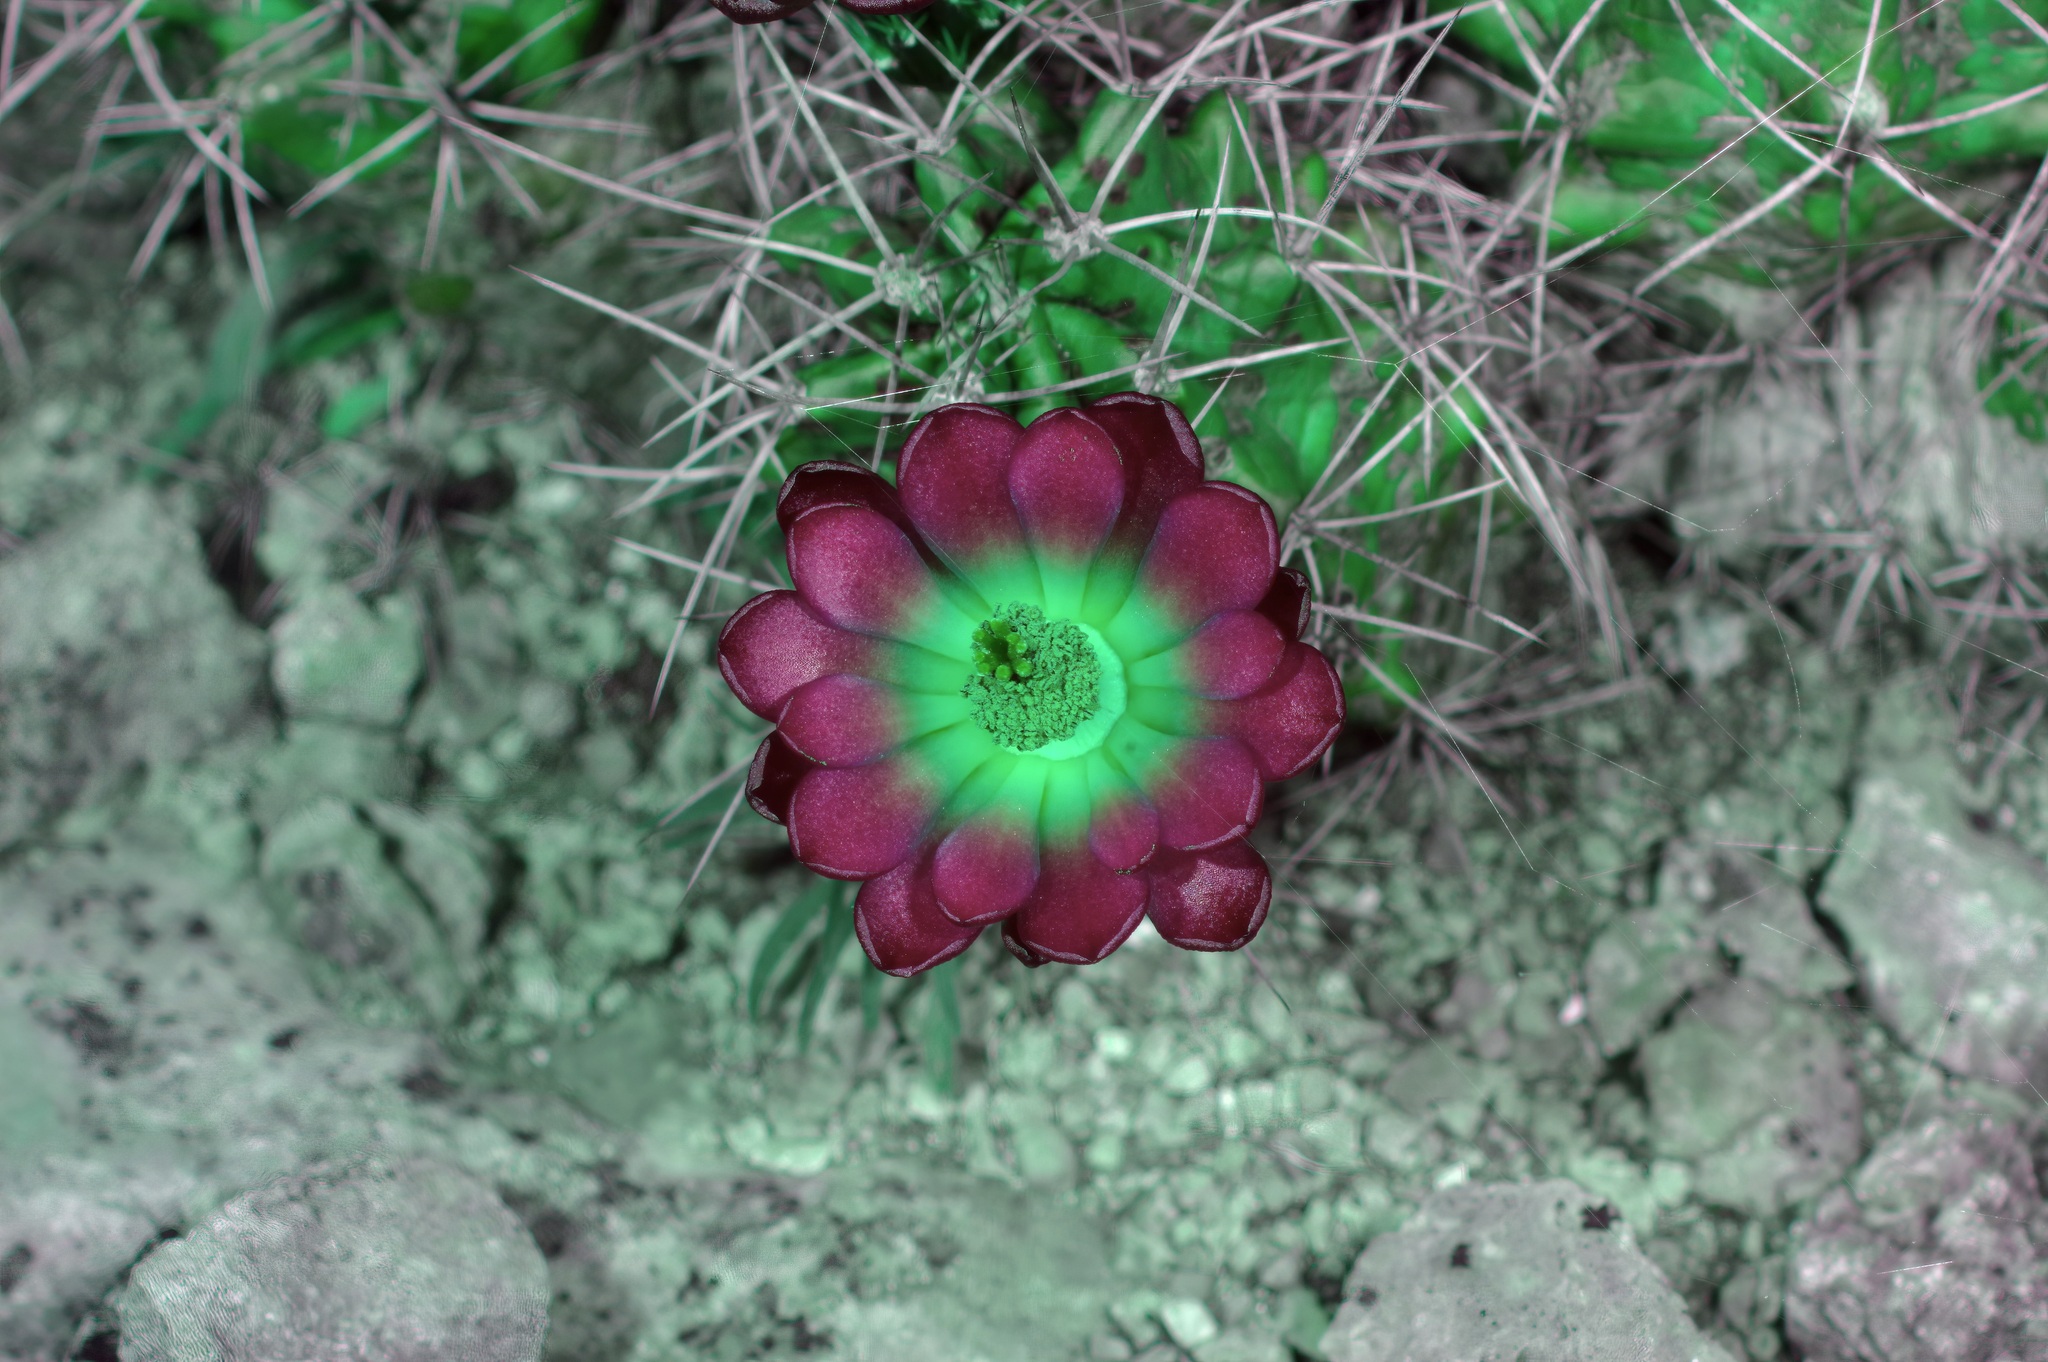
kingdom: Plantae
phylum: Tracheophyta
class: Magnoliopsida
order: Caryophyllales
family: Cactaceae
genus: Echinocereus
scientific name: Echinocereus coccineus
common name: Scarlet hedgehog cactus
